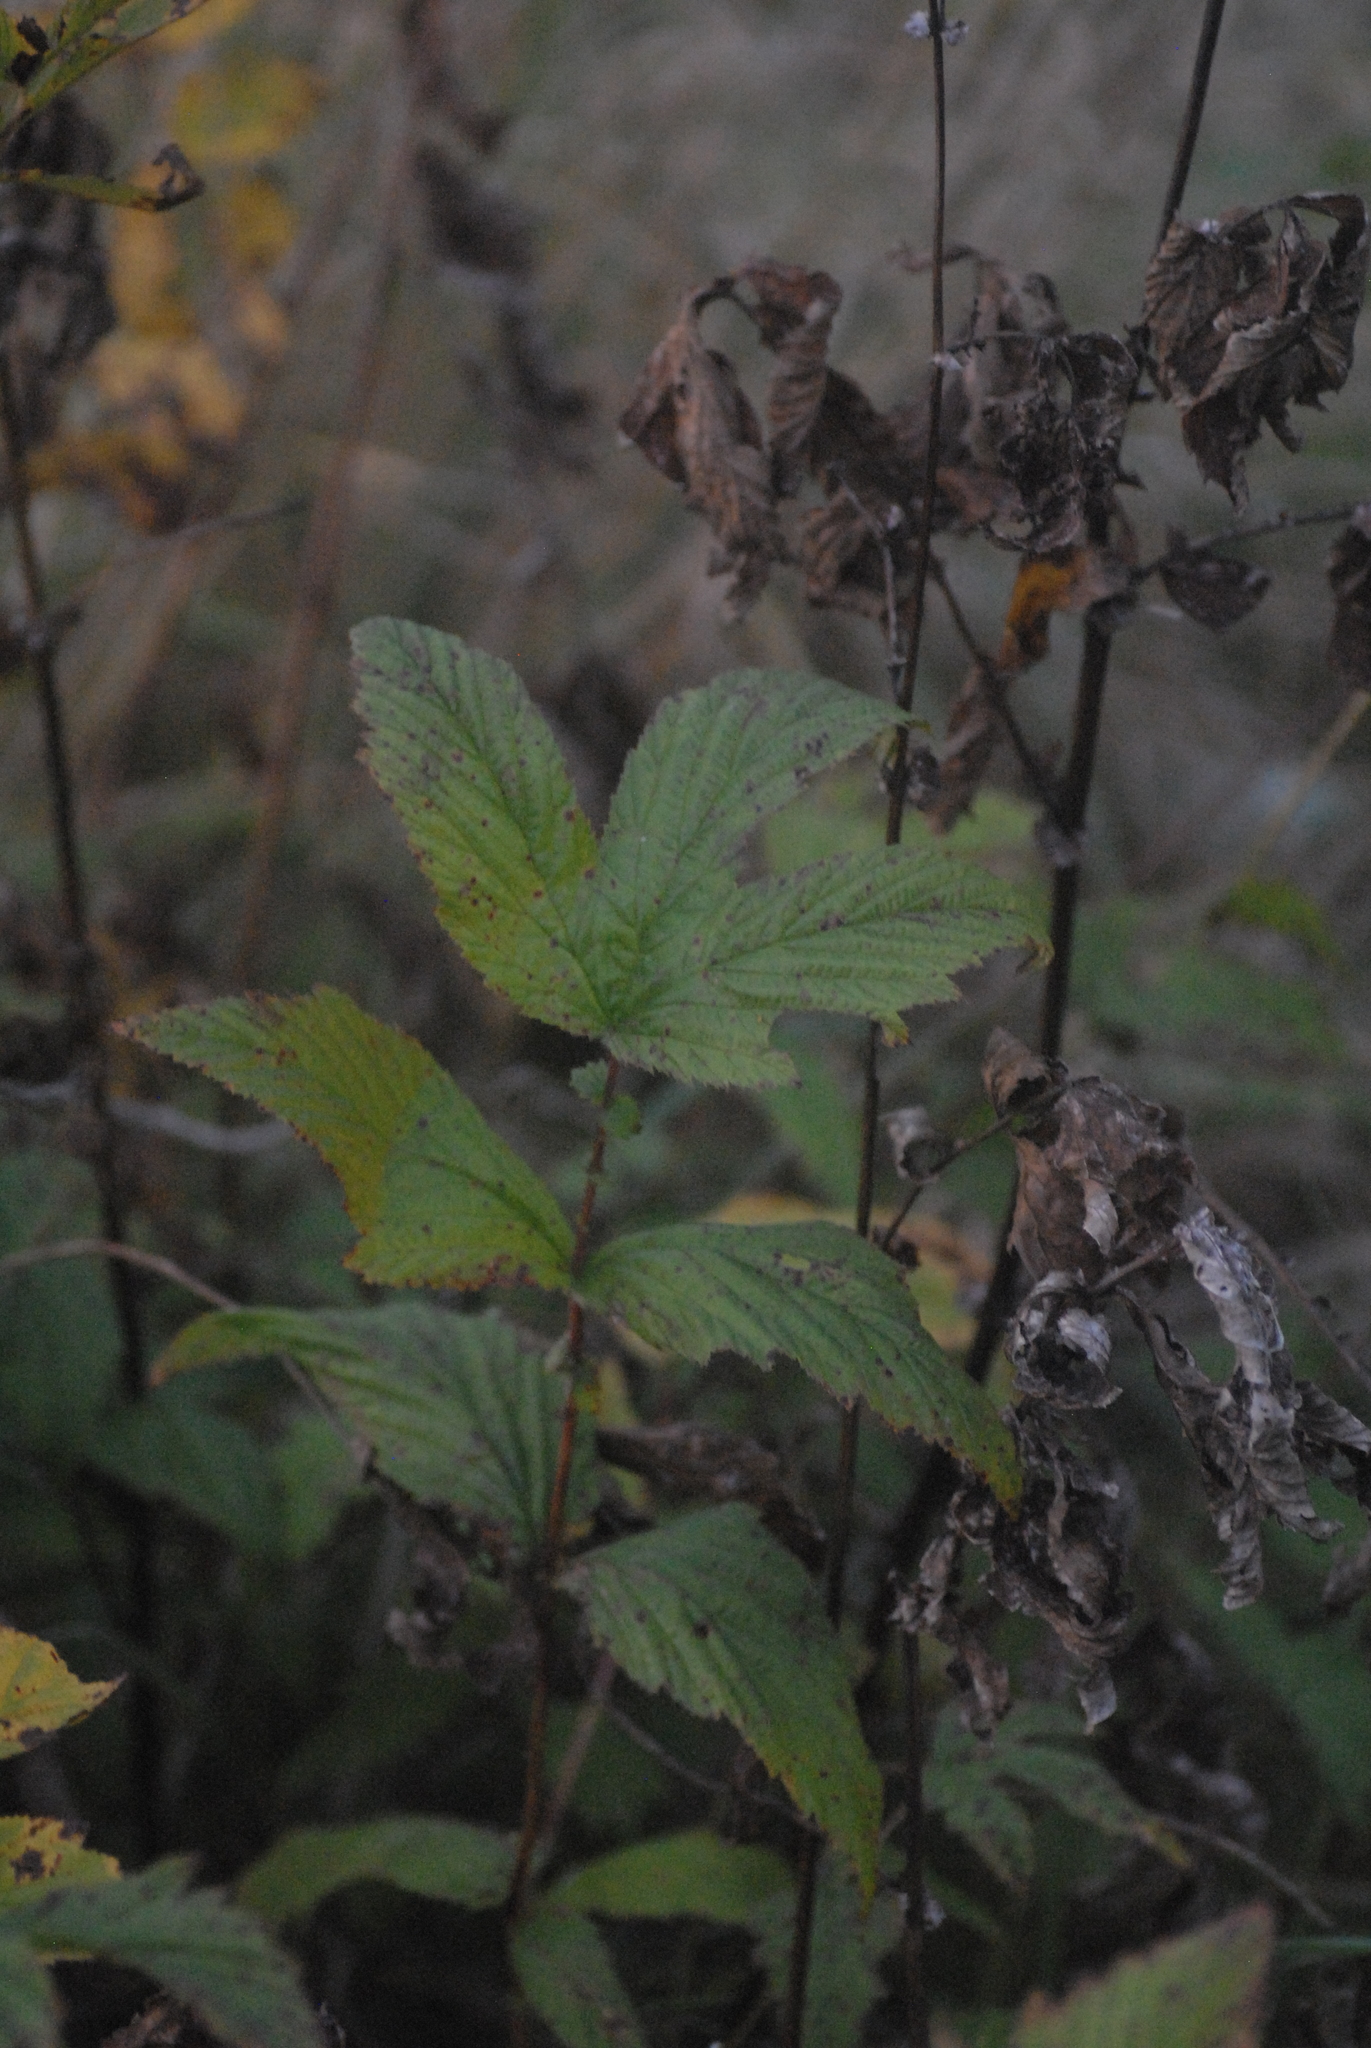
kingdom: Plantae
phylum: Tracheophyta
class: Magnoliopsida
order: Rosales
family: Rosaceae
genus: Filipendula
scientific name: Filipendula ulmaria
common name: Meadowsweet
